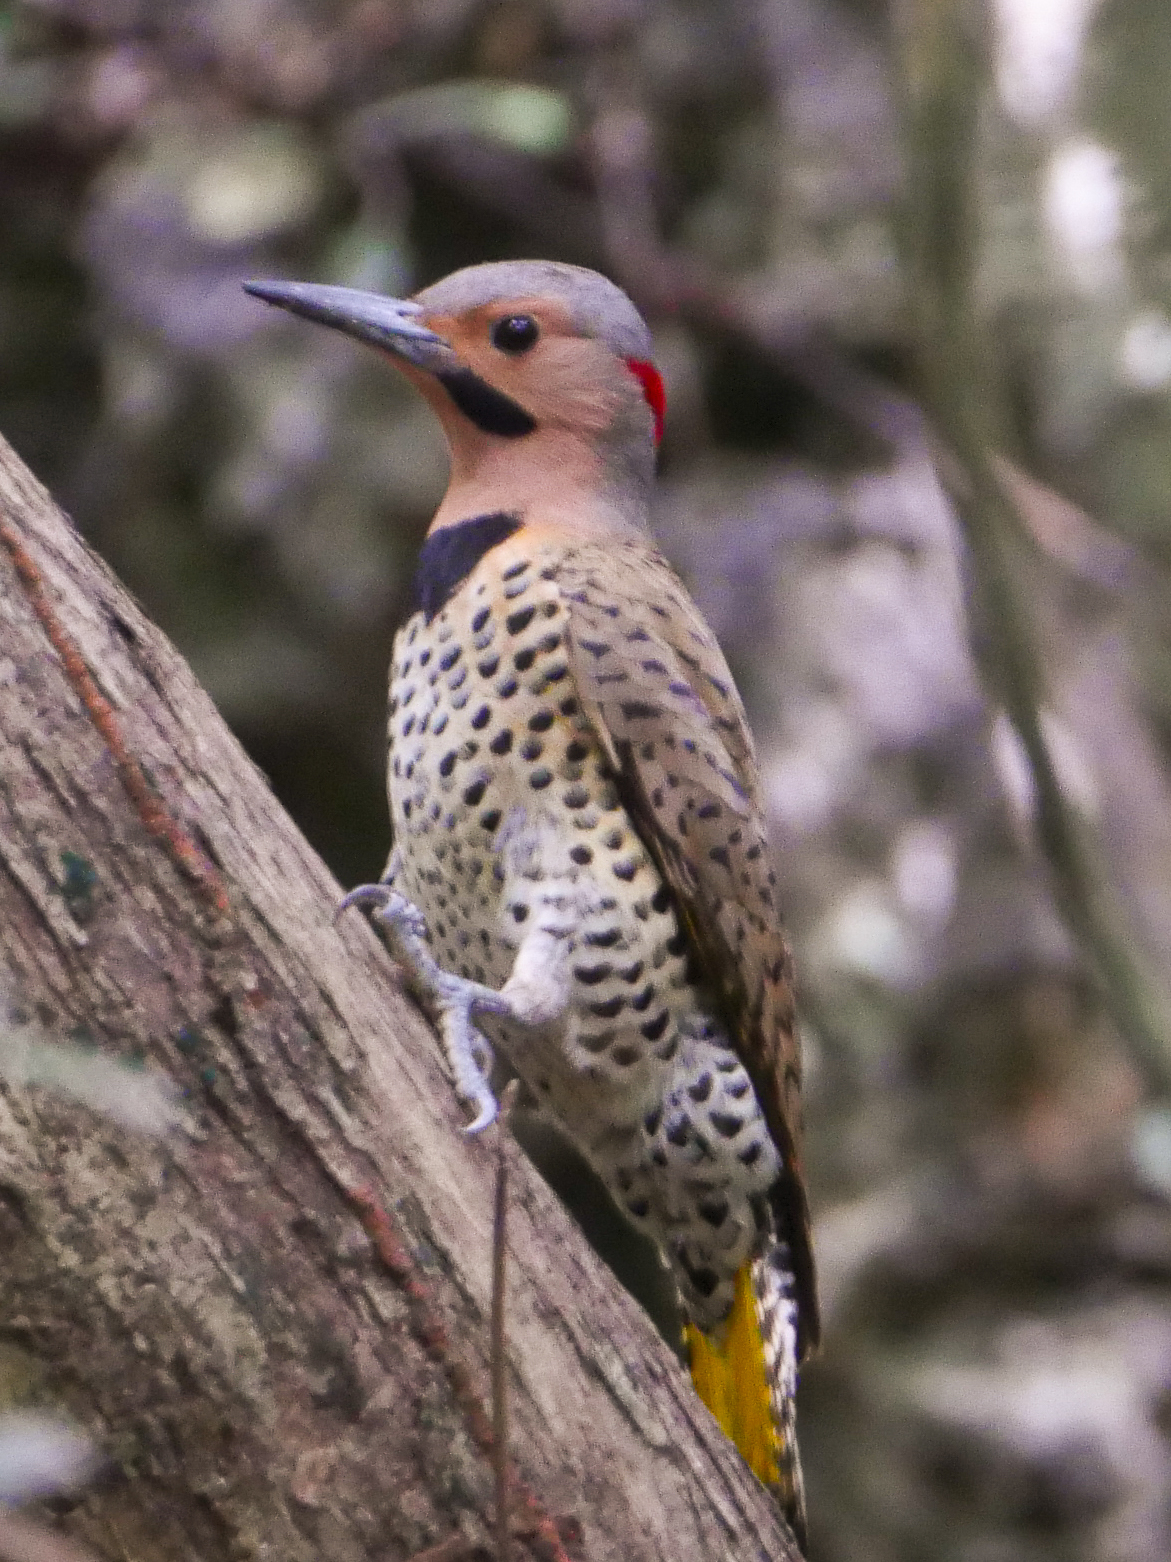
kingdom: Animalia
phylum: Chordata
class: Aves
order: Piciformes
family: Picidae
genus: Colaptes
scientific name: Colaptes auratus
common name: Northern flicker
